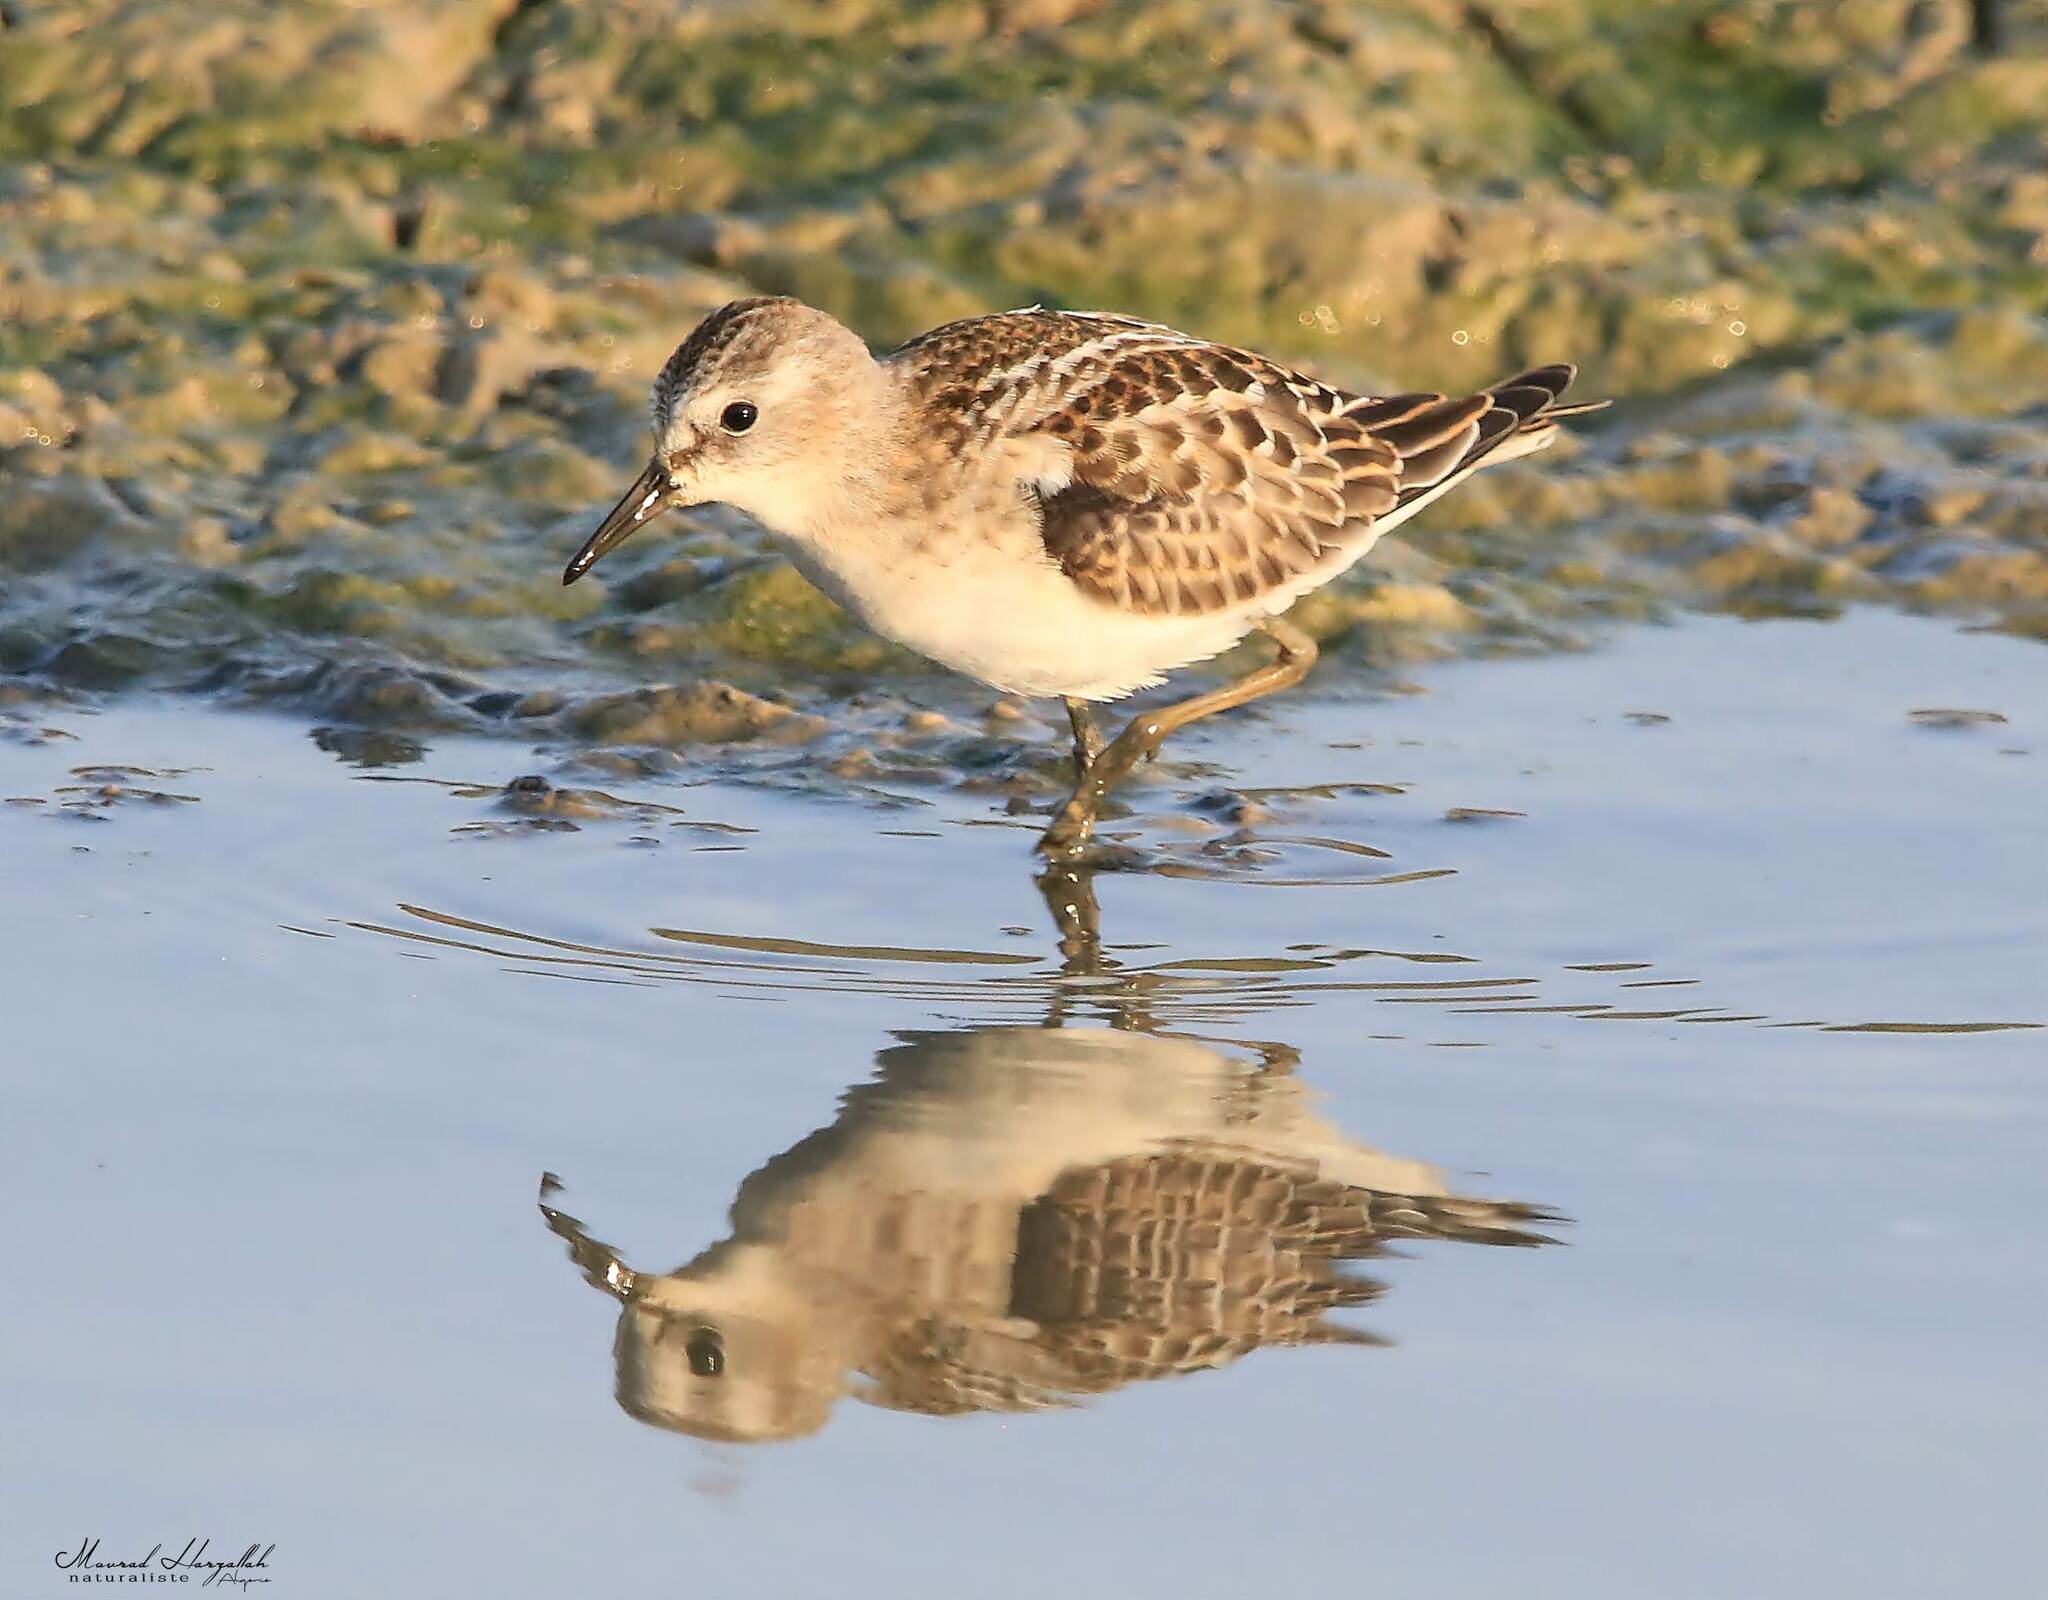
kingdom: Animalia
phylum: Chordata
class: Aves
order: Charadriiformes
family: Scolopacidae
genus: Calidris
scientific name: Calidris minuta
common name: Little stint
